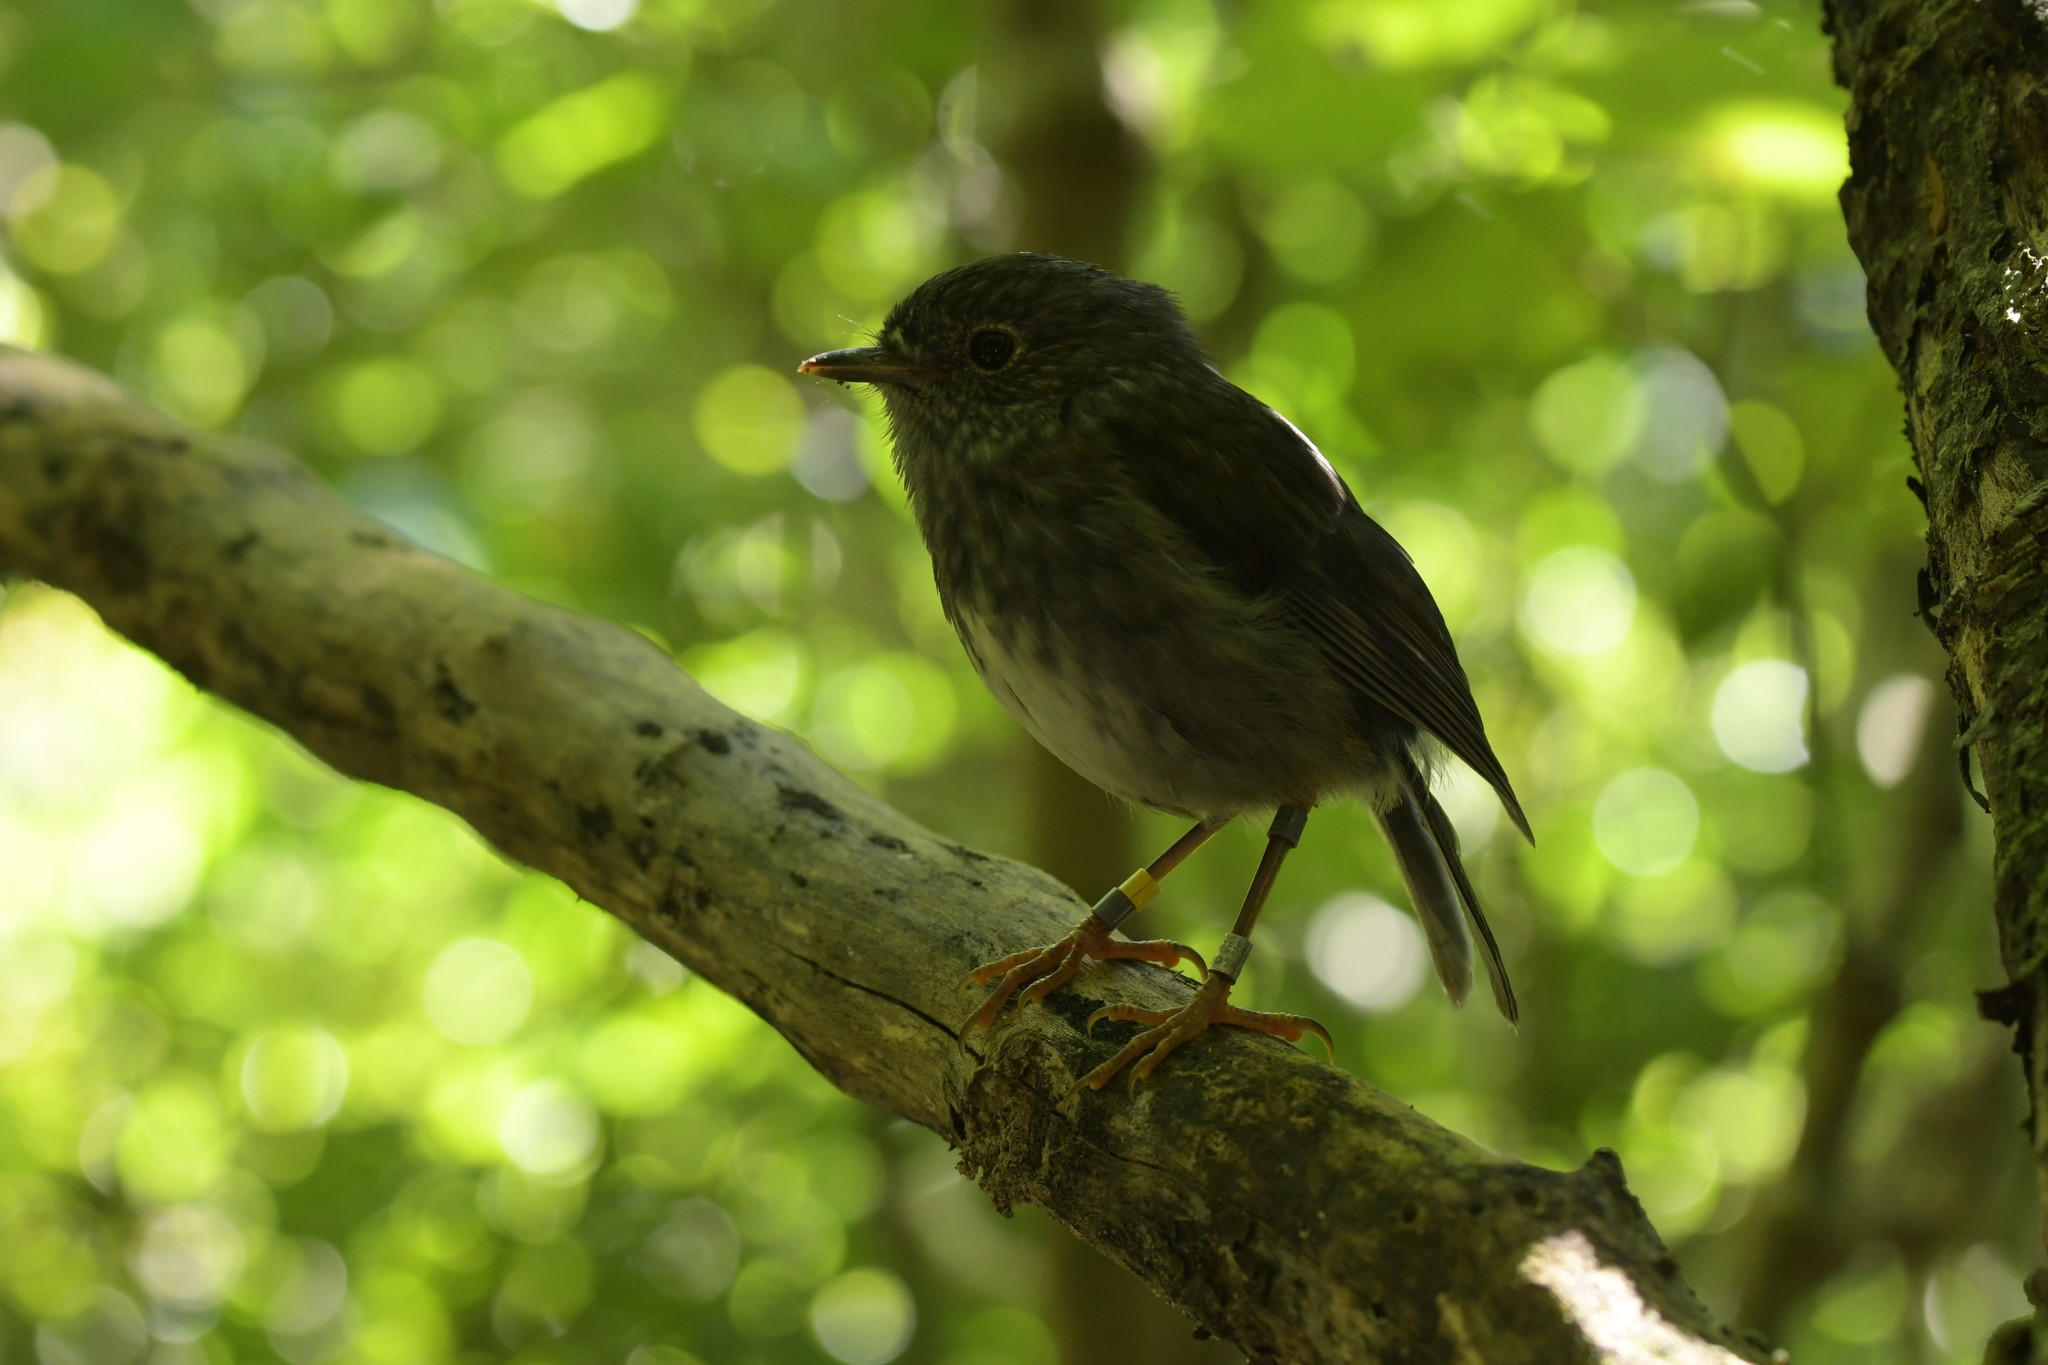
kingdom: Animalia
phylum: Chordata
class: Aves
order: Passeriformes
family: Petroicidae
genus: Petroica
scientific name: Petroica australis
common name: New zealand robin
